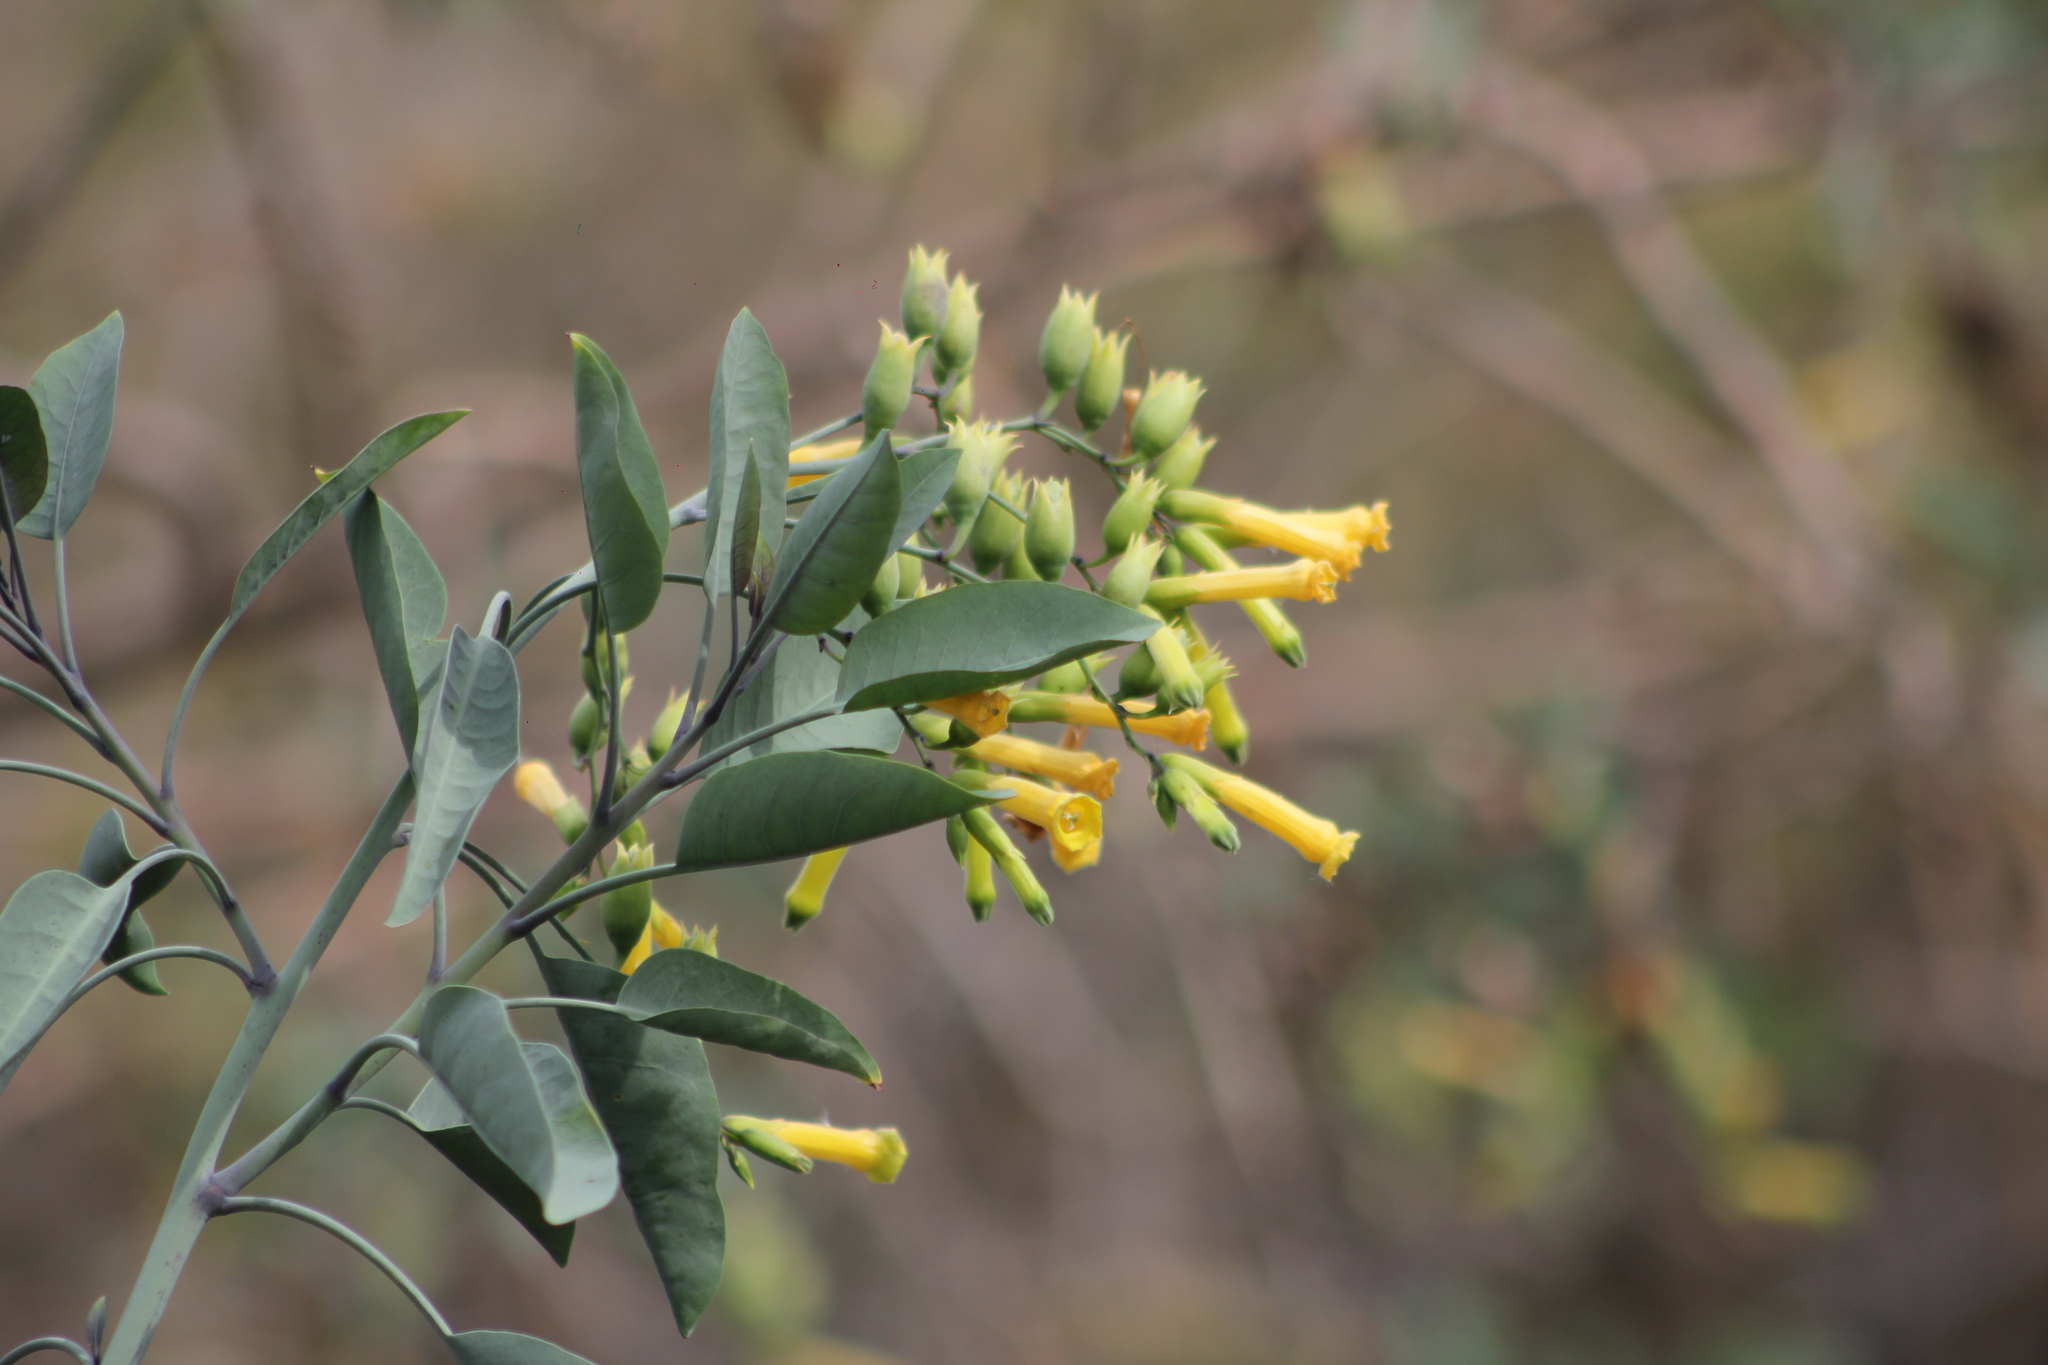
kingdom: Plantae
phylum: Tracheophyta
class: Magnoliopsida
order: Solanales
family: Solanaceae
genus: Nicotiana
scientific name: Nicotiana glauca
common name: Tree tobacco
